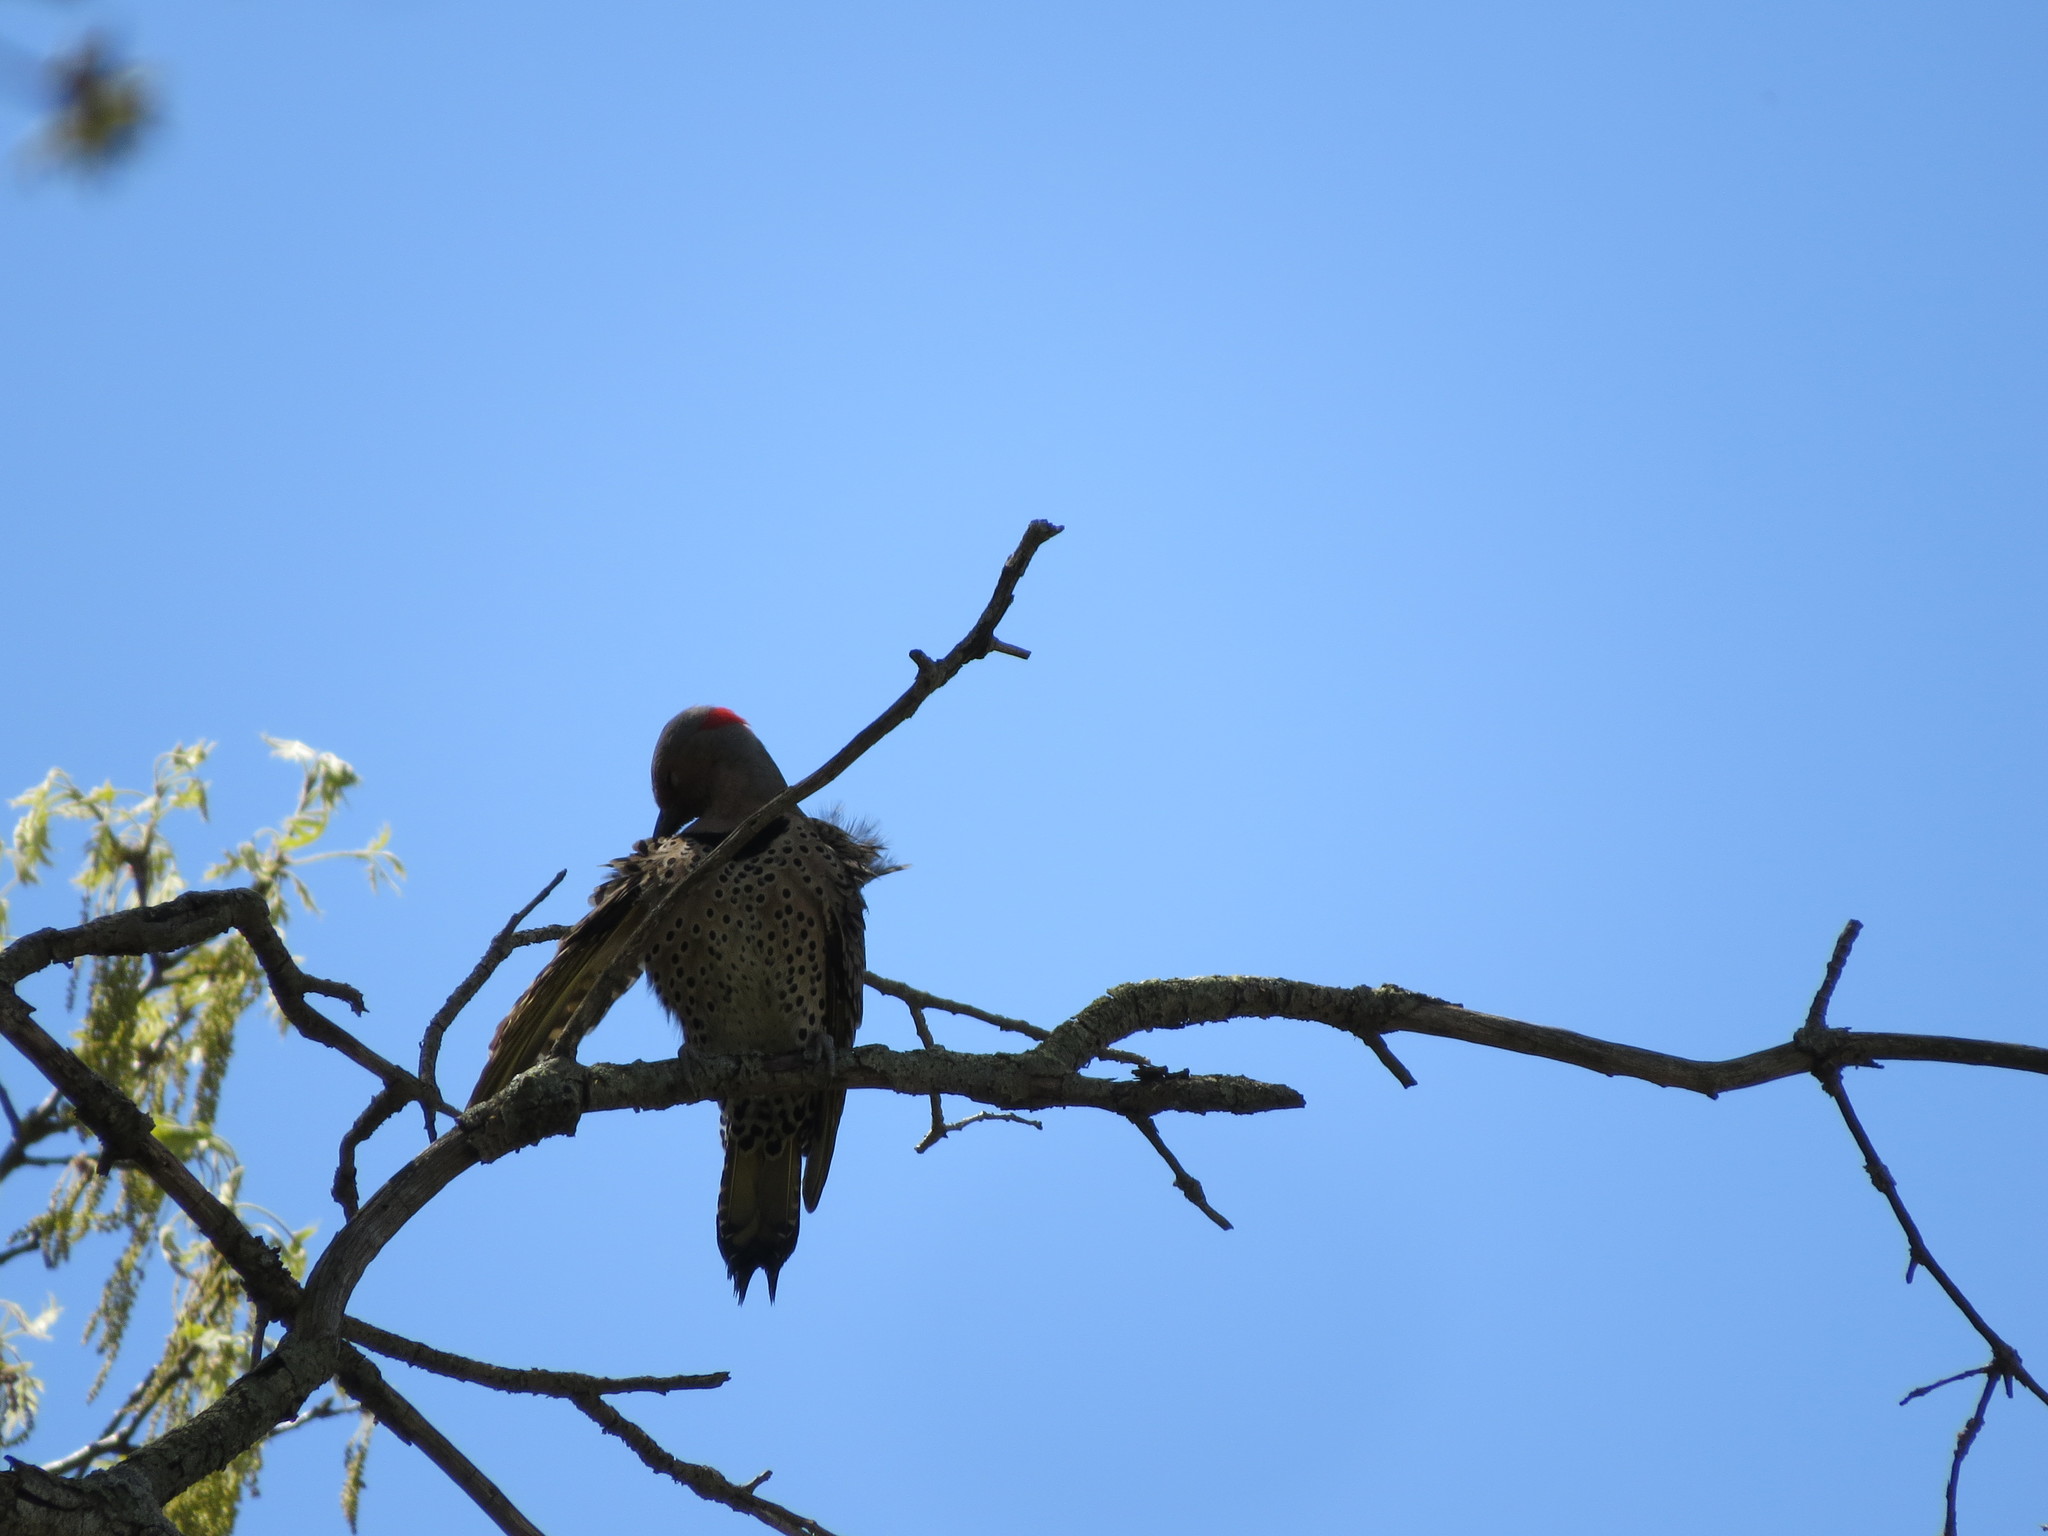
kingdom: Animalia
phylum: Chordata
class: Aves
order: Piciformes
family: Picidae
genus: Colaptes
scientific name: Colaptes auratus
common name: Northern flicker
